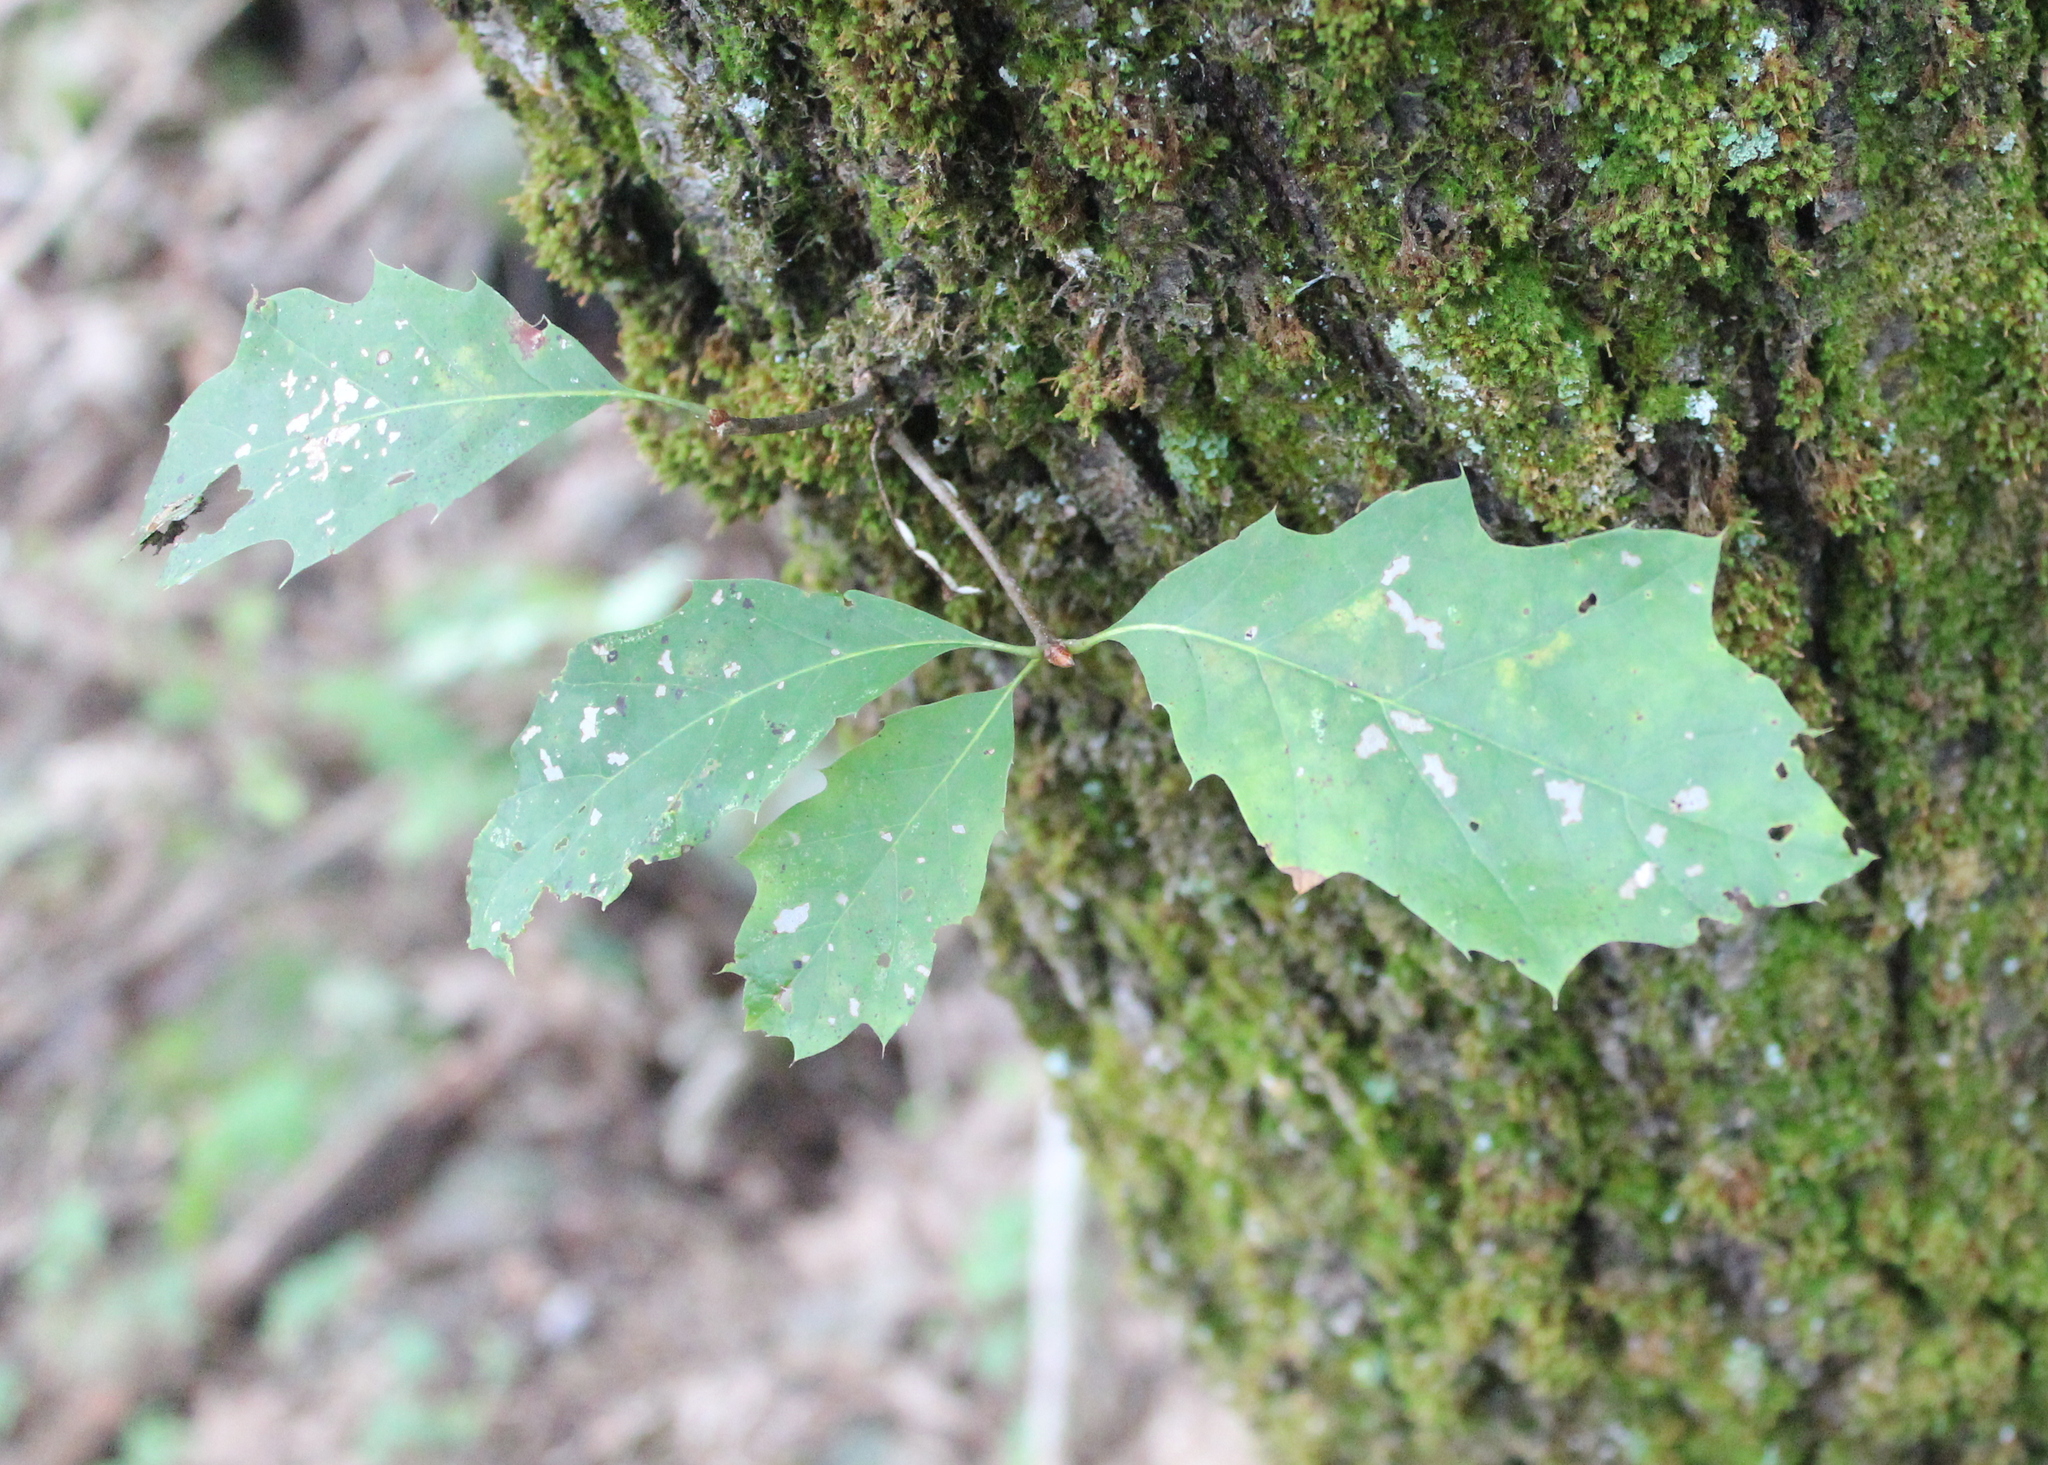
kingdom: Plantae
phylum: Tracheophyta
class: Magnoliopsida
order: Fagales
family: Fagaceae
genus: Quercus
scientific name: Quercus rubra
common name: Red oak
